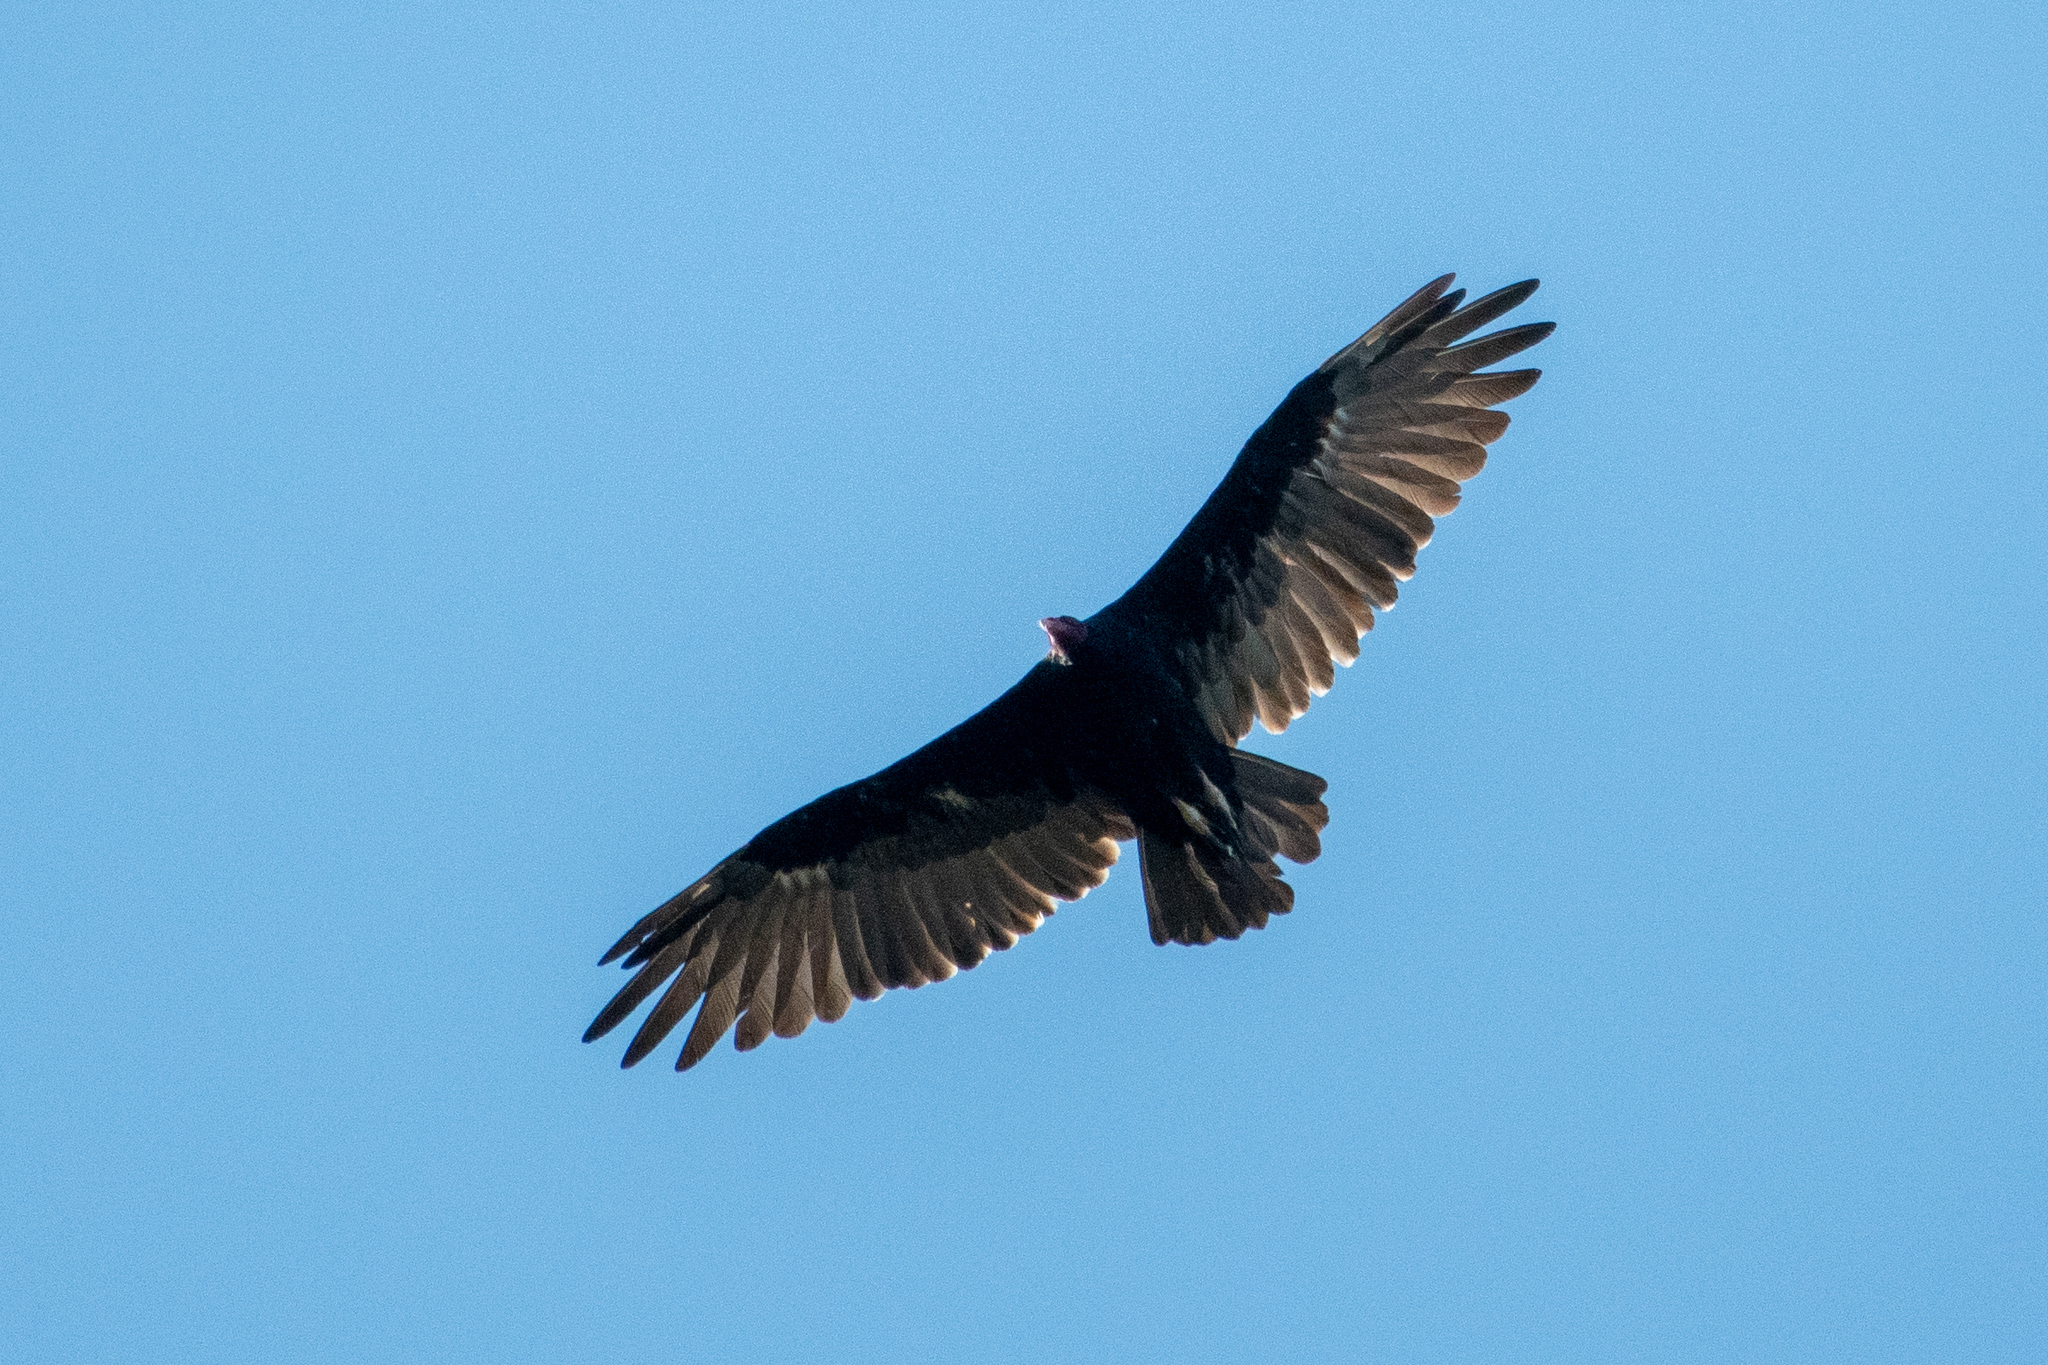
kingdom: Animalia
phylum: Chordata
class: Aves
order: Accipitriformes
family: Cathartidae
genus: Cathartes
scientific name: Cathartes aura
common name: Turkey vulture
